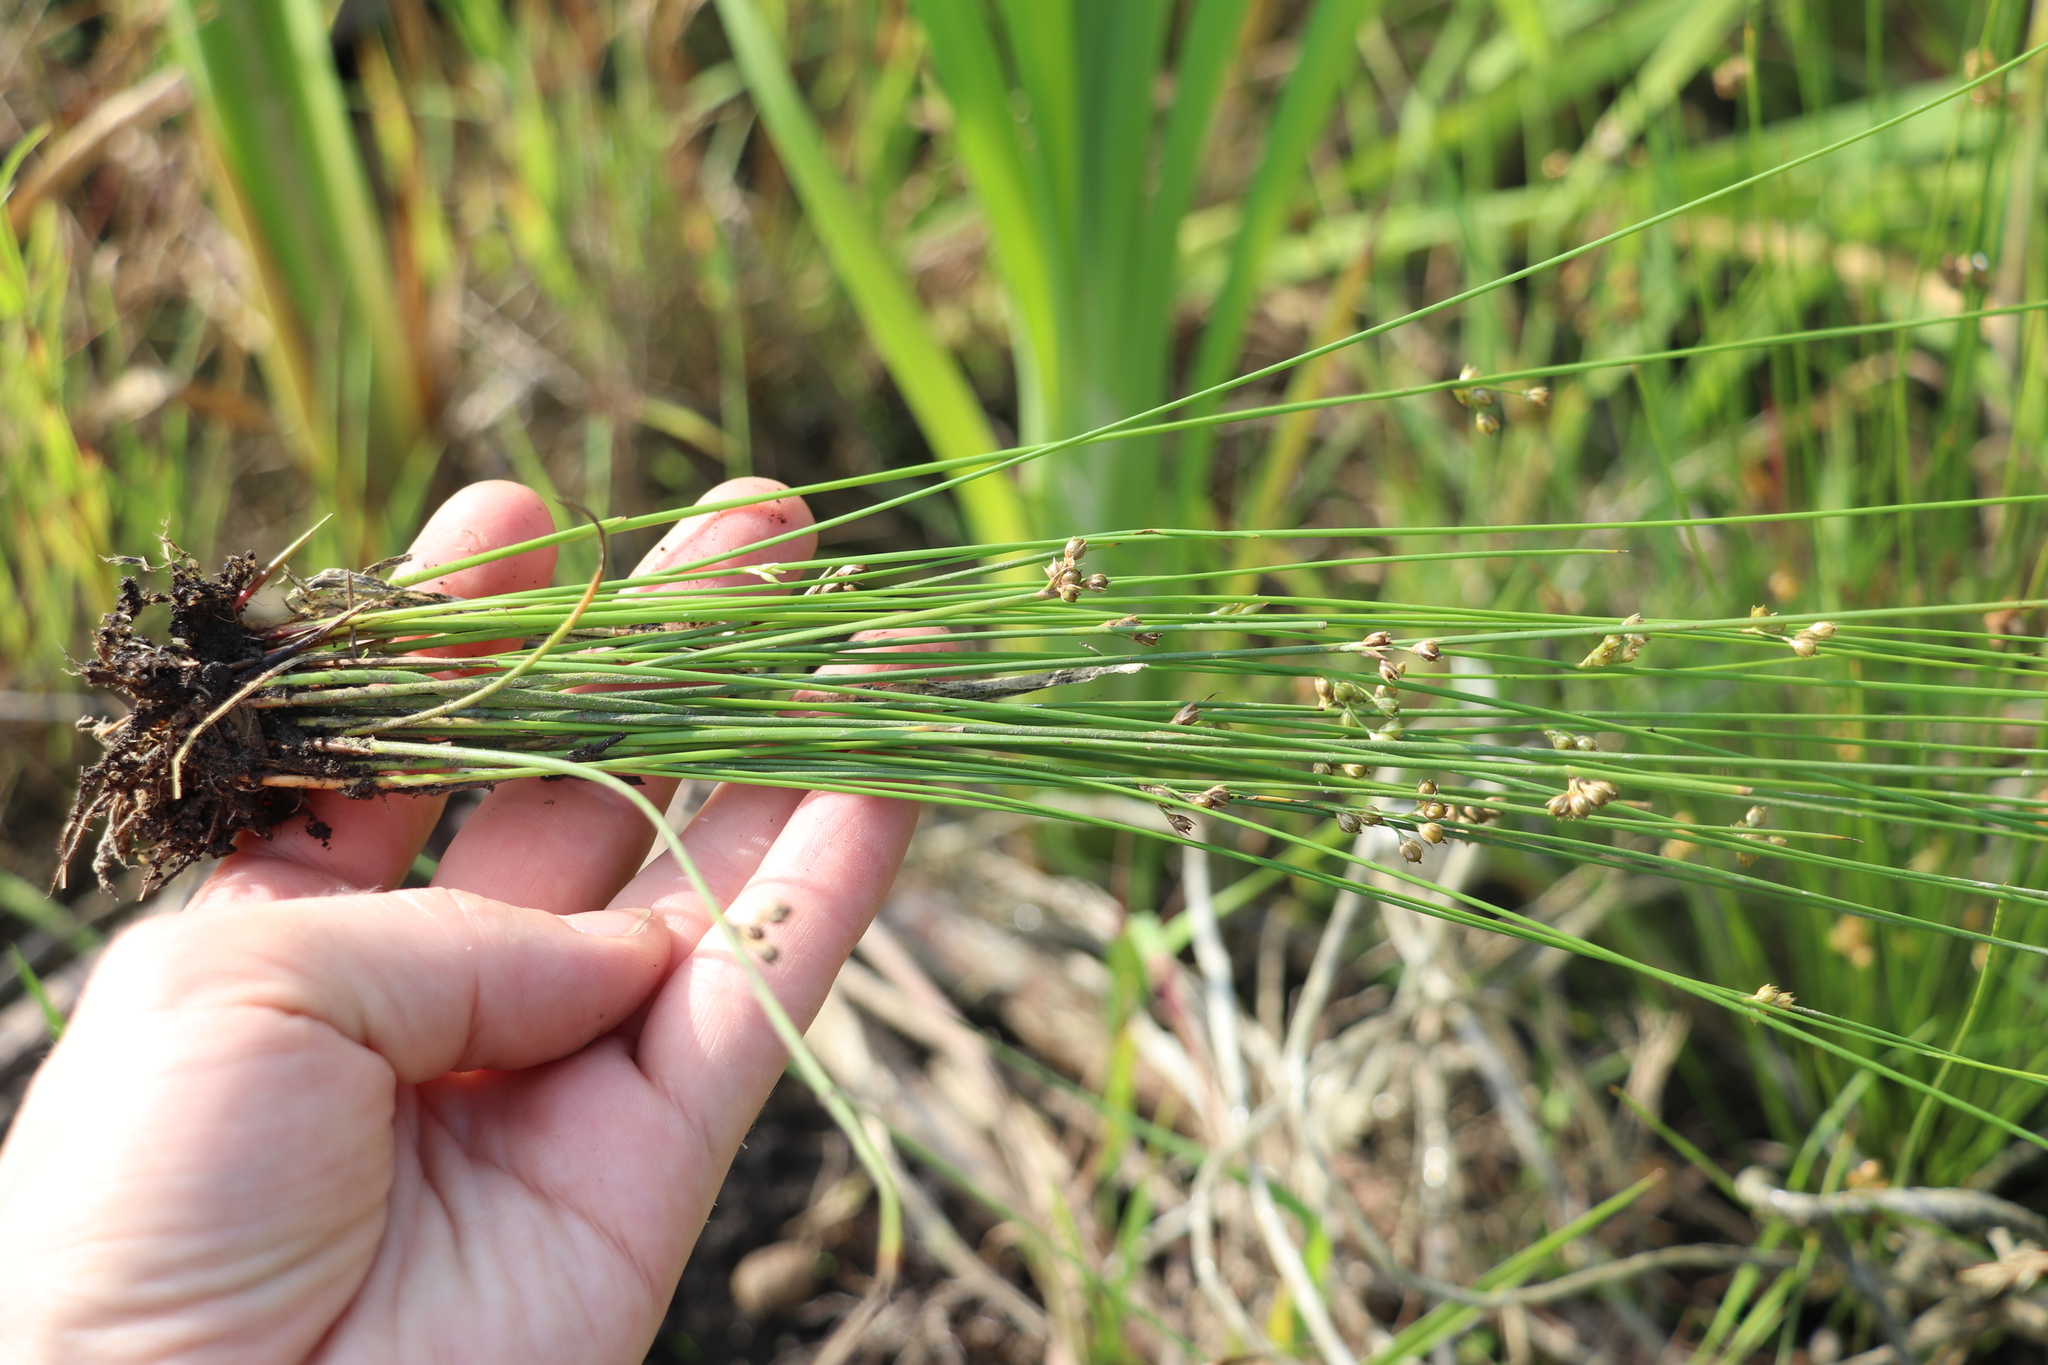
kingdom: Plantae
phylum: Tracheophyta
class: Liliopsida
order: Poales
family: Juncaceae
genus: Juncus
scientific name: Juncus filiformis
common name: Thread rush
